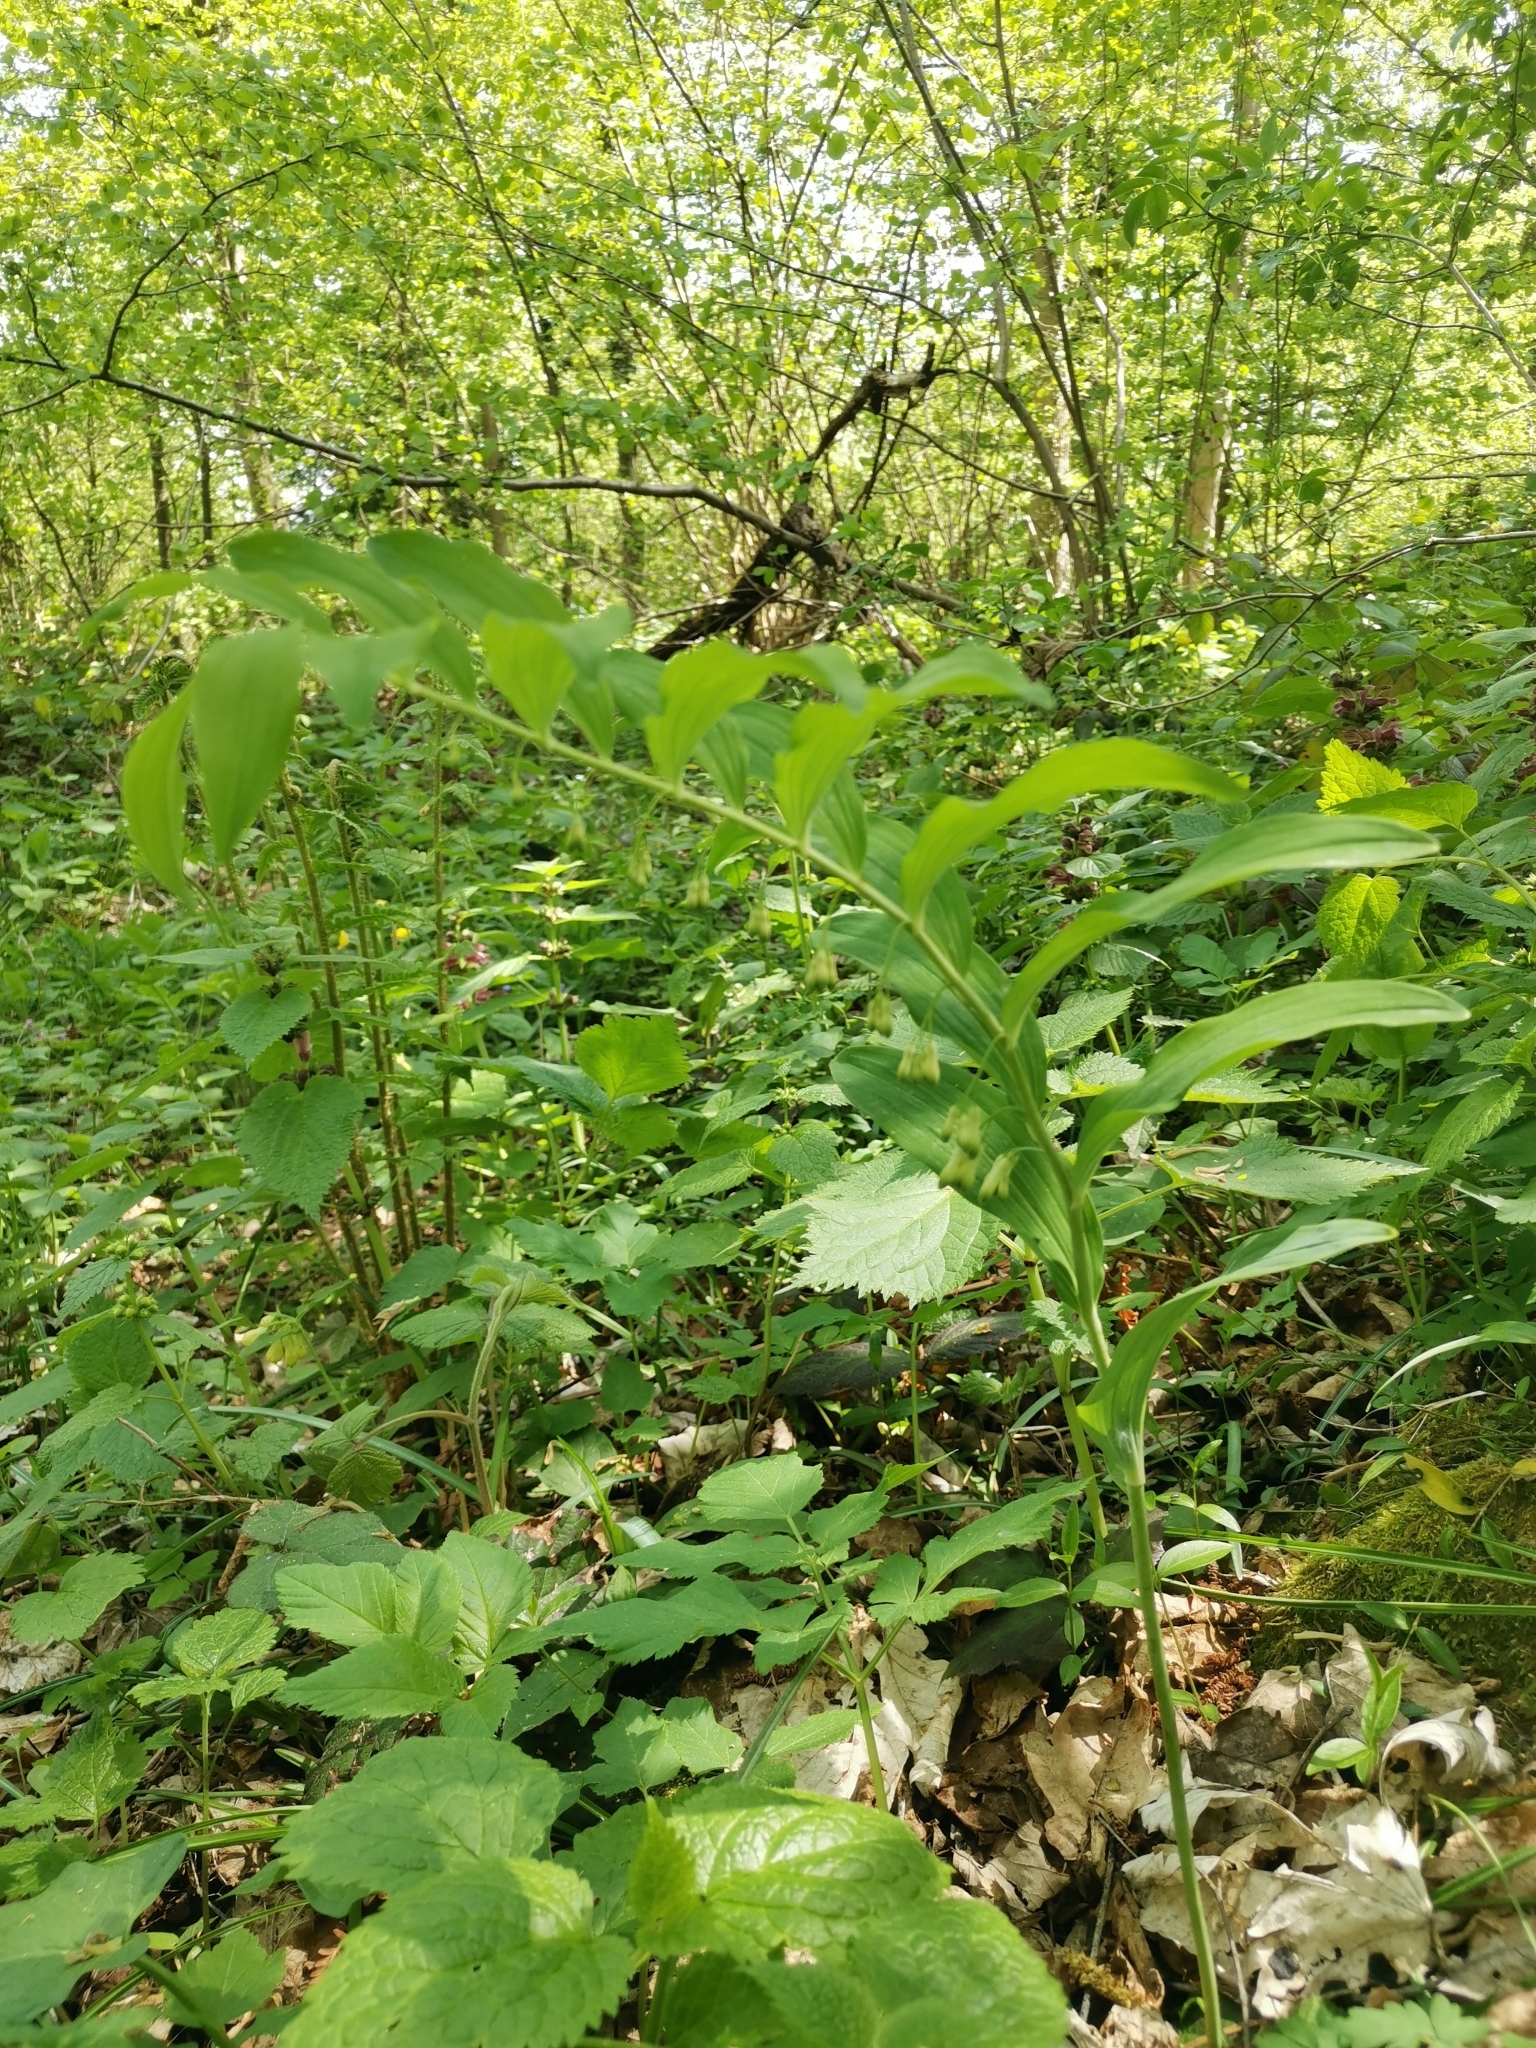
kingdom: Plantae
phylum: Tracheophyta
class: Liliopsida
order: Asparagales
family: Asparagaceae
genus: Polygonatum
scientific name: Polygonatum multiflorum
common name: Solomon's-seal
